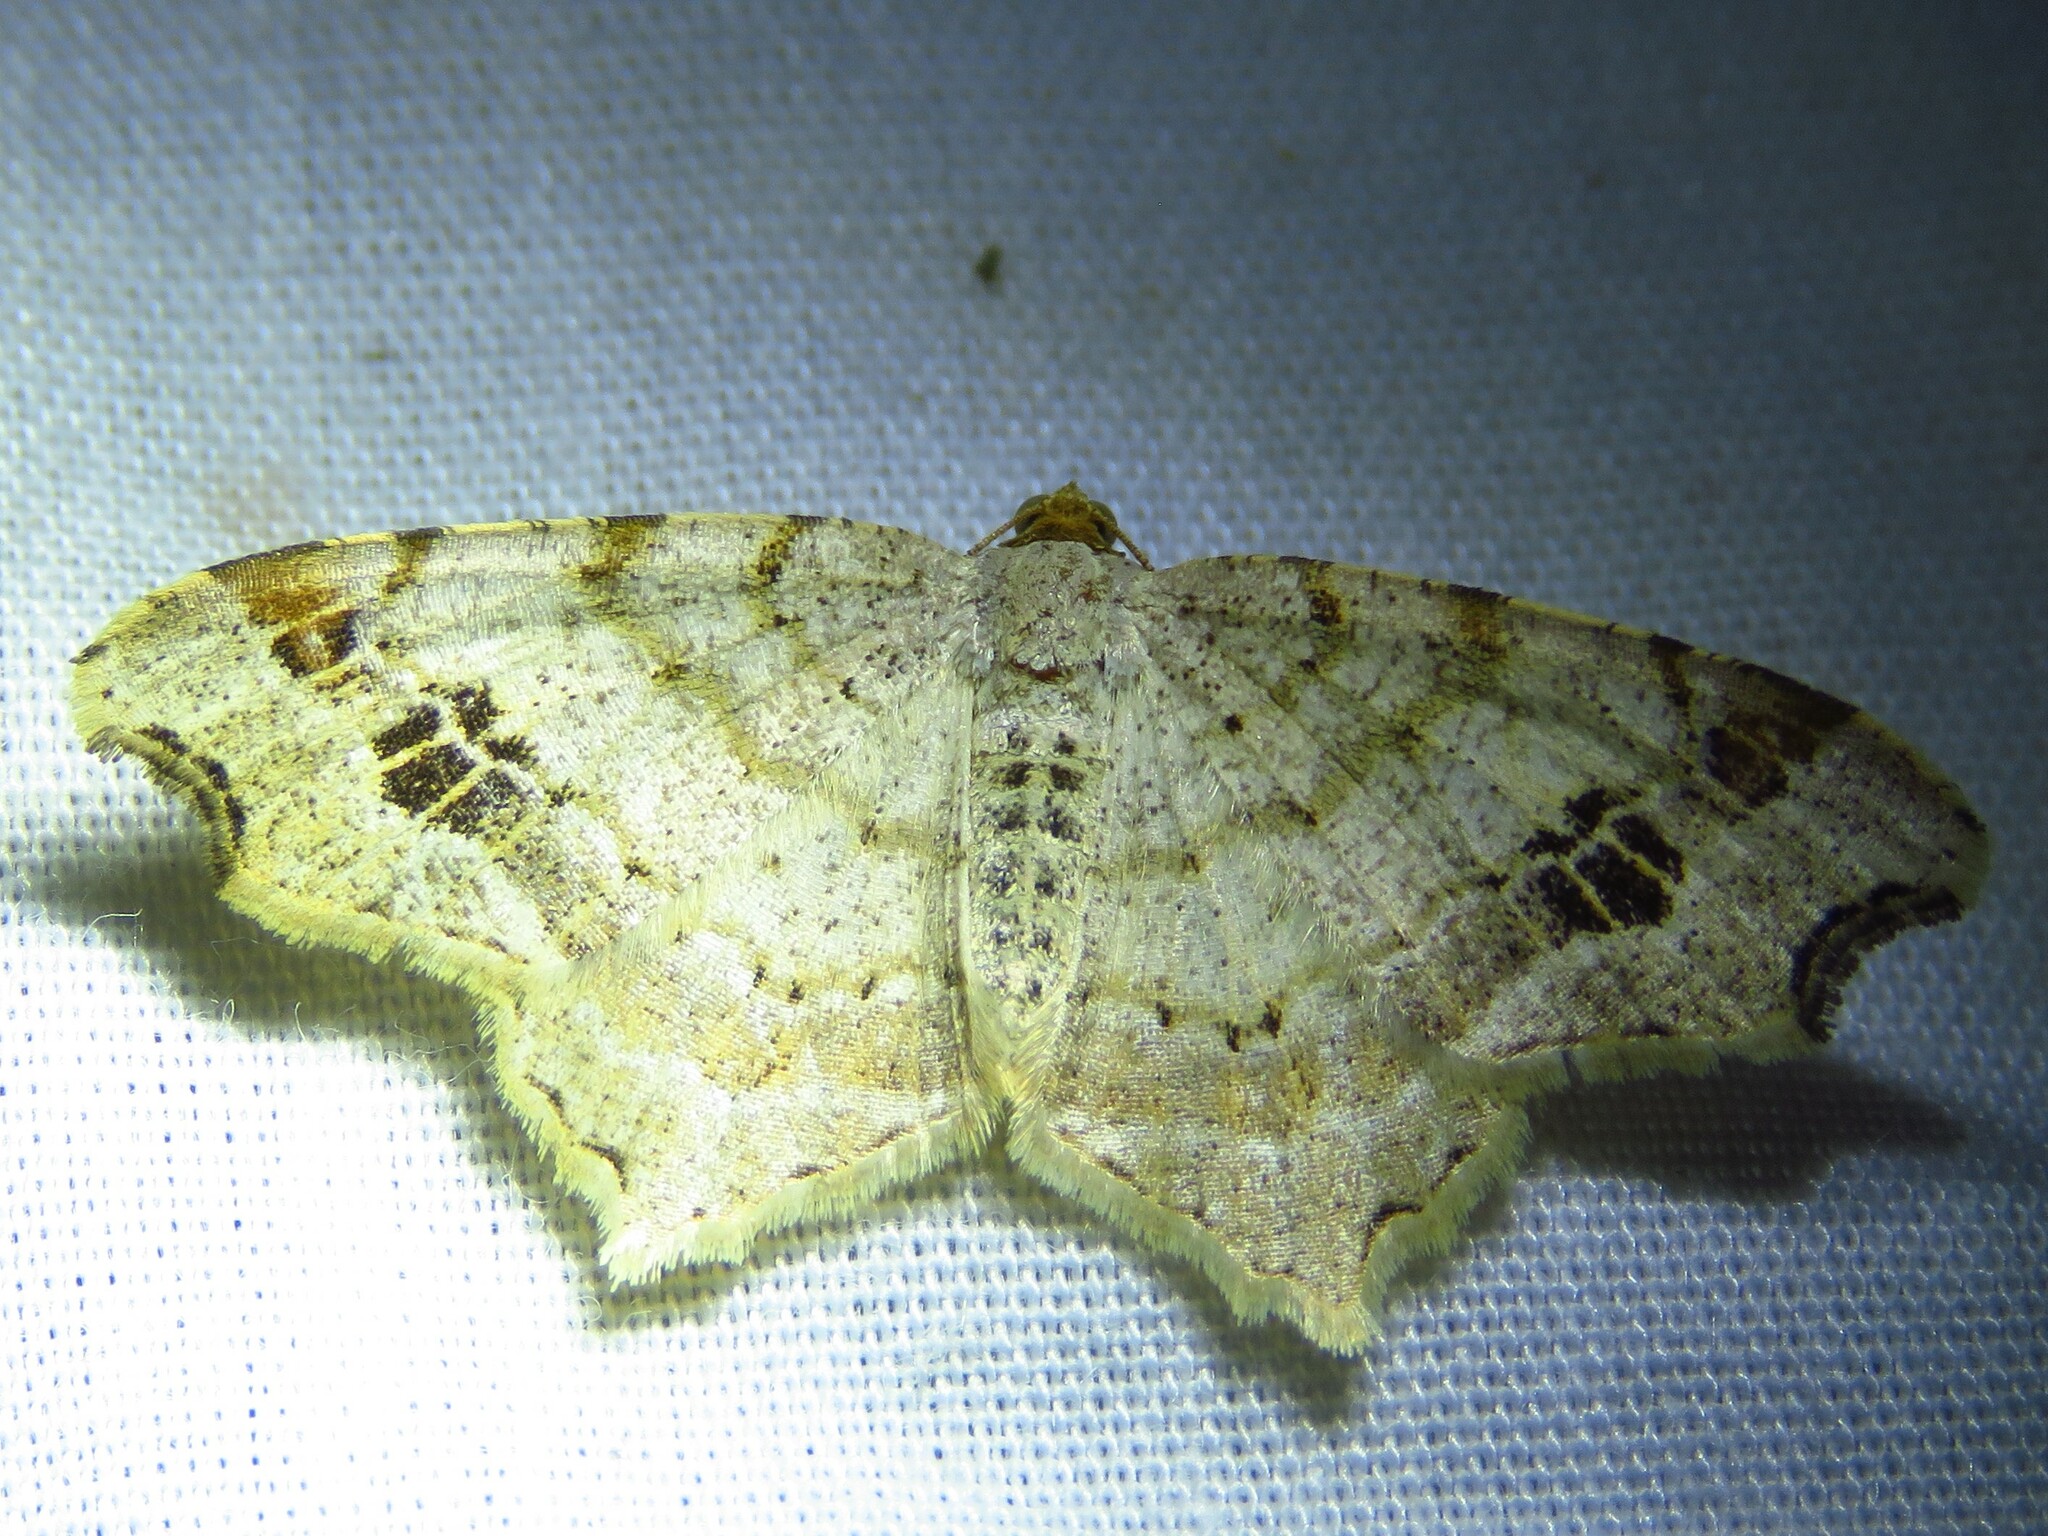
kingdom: Animalia
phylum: Arthropoda
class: Insecta
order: Lepidoptera
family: Geometridae
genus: Macaria
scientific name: Macaria aemulataria
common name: Common angle
